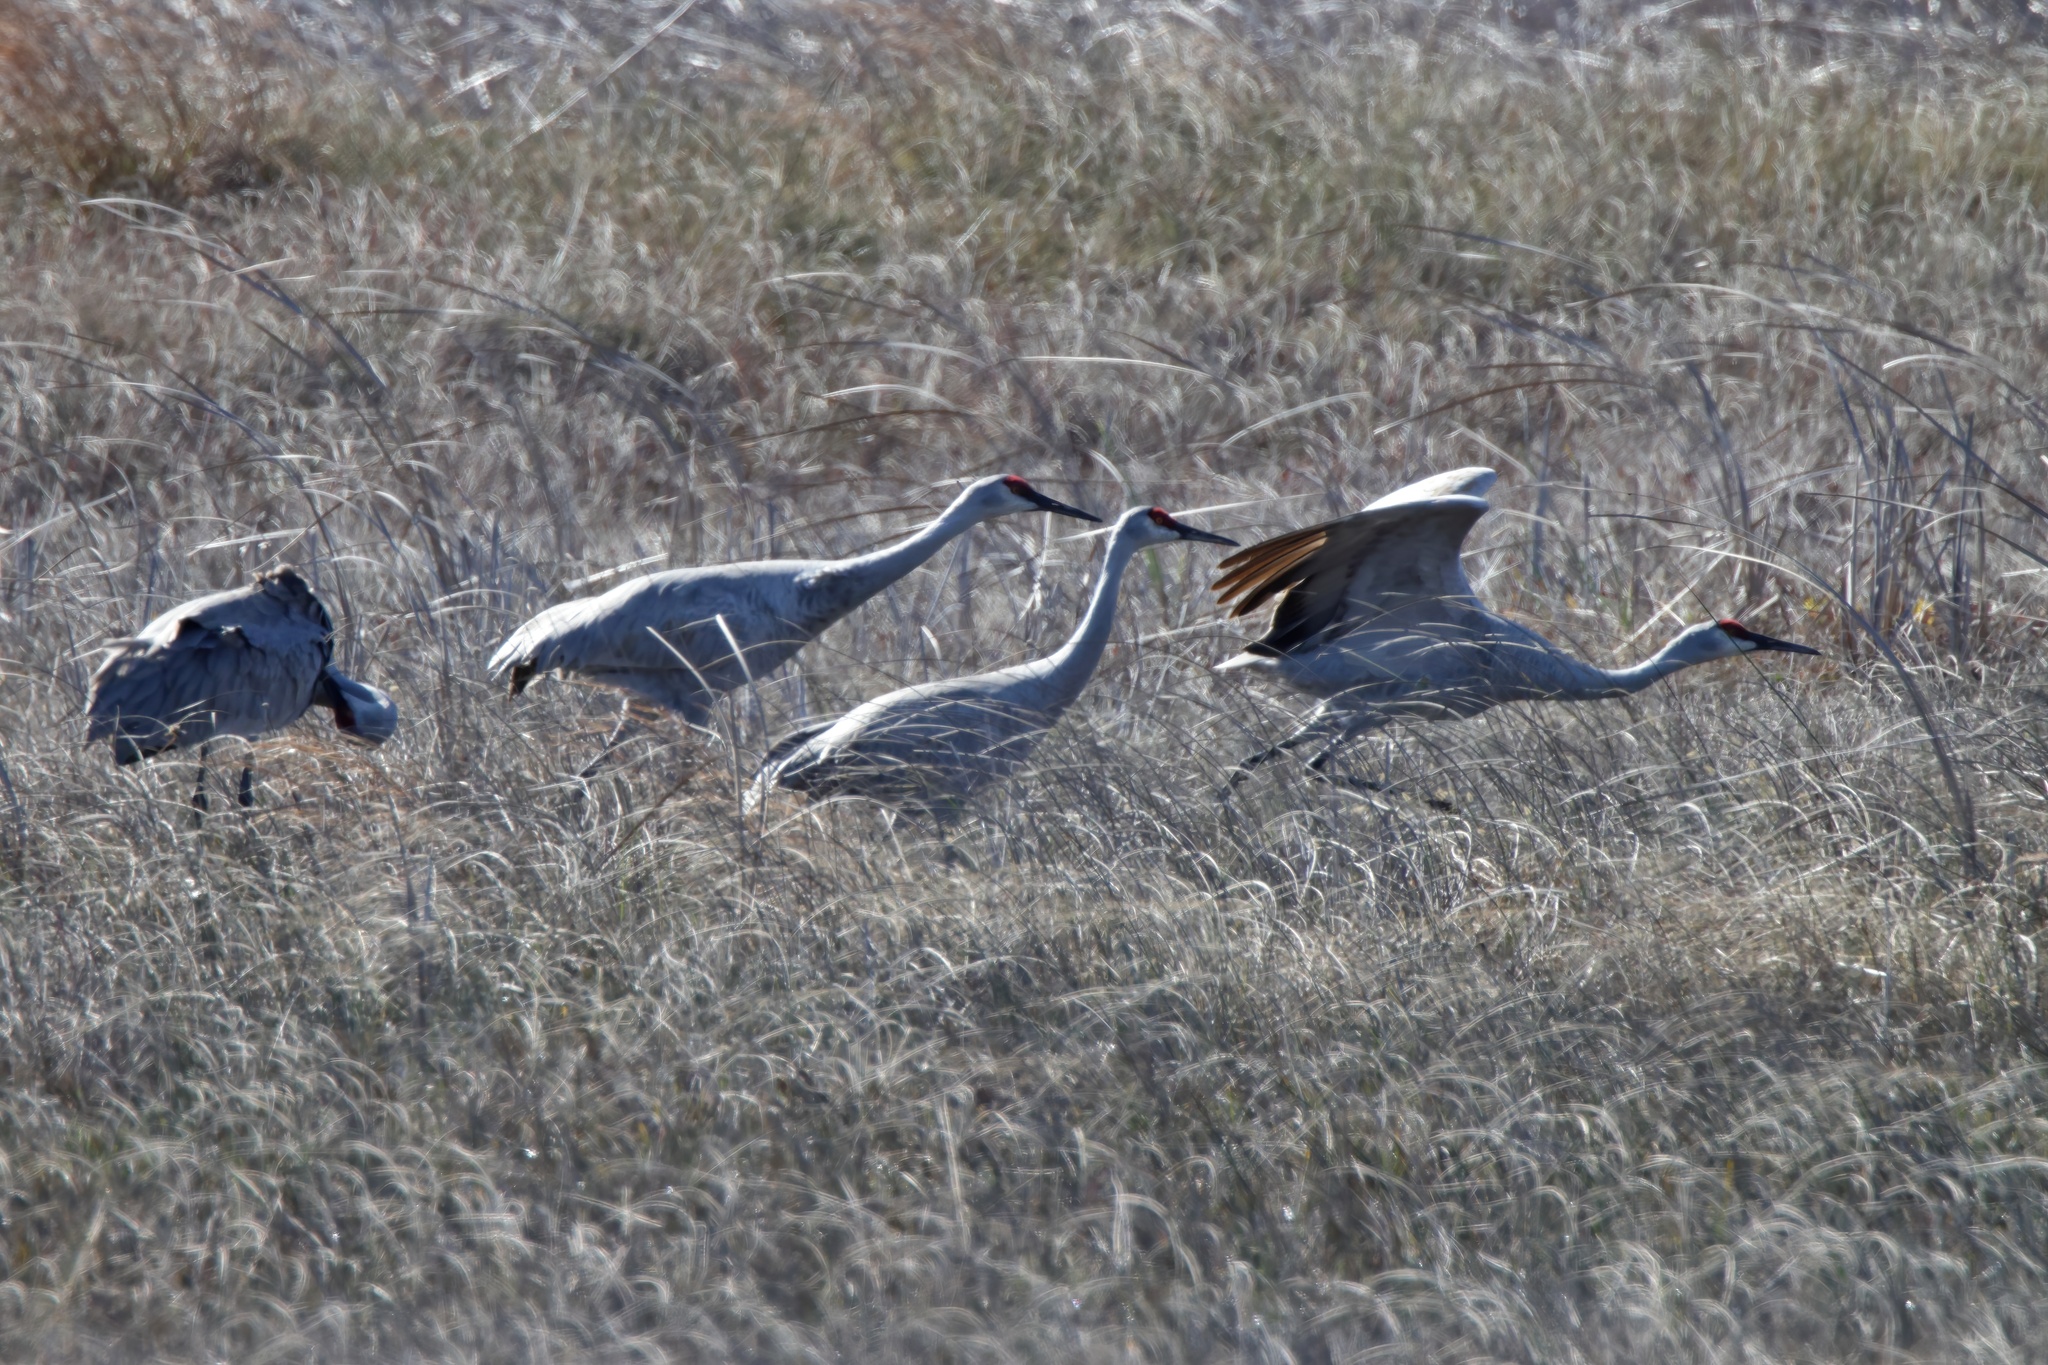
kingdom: Animalia
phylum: Chordata
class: Aves
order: Gruiformes
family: Gruidae
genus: Grus
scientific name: Grus canadensis
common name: Sandhill crane
